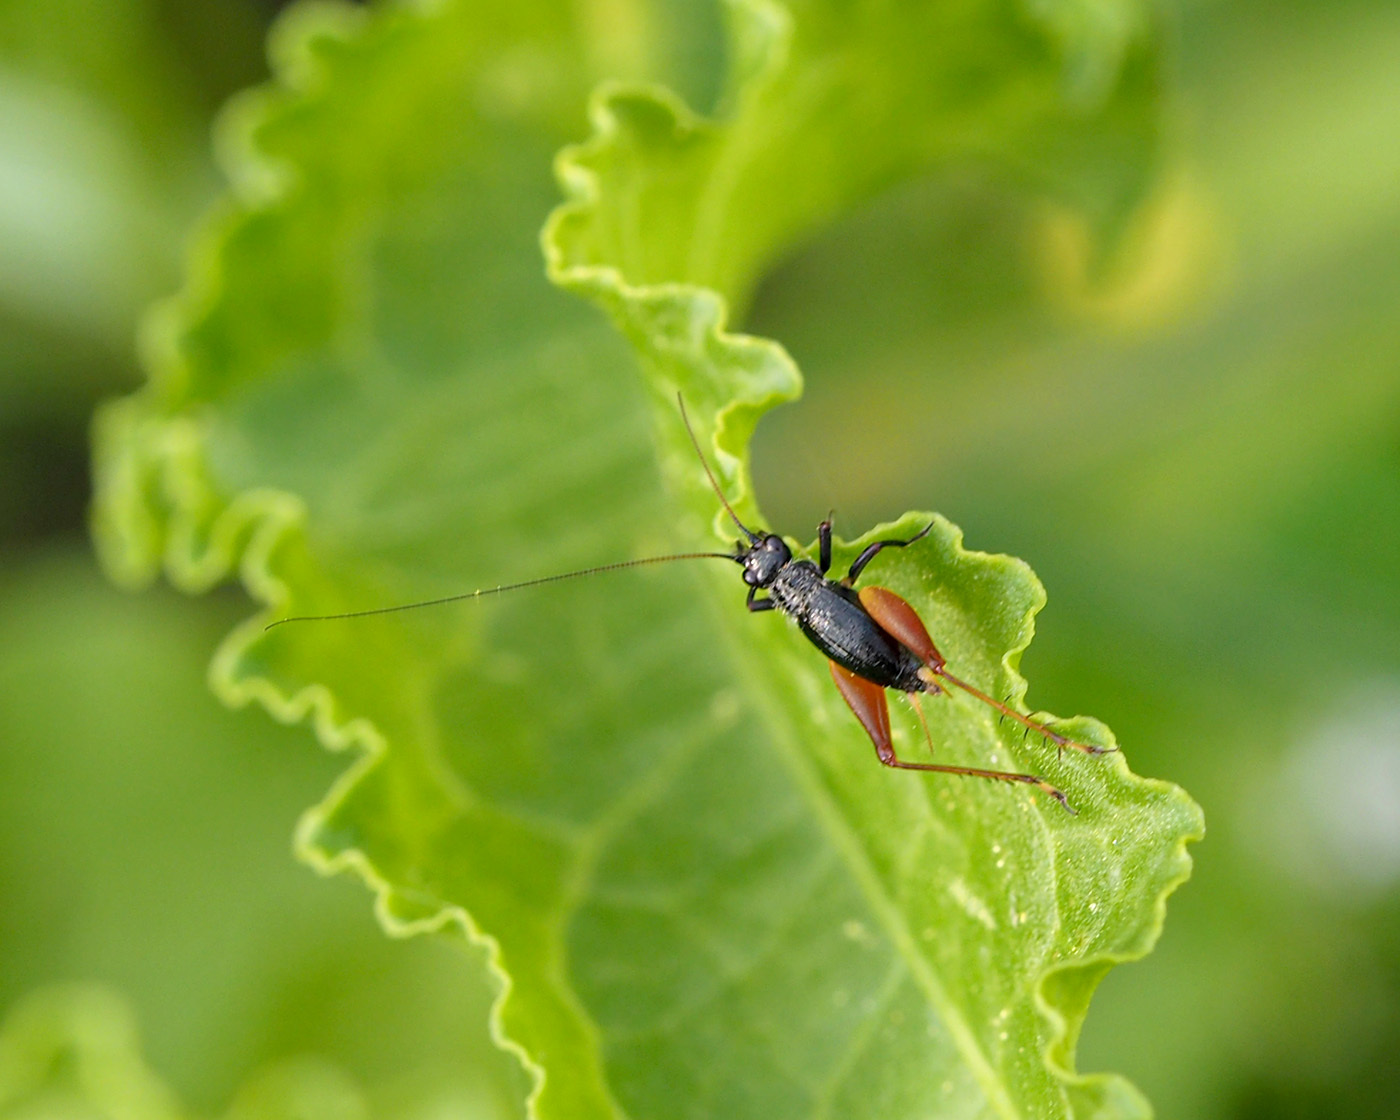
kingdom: Animalia
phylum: Arthropoda
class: Insecta
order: Orthoptera
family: Trigonidiidae
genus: Trigonidium
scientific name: Trigonidium cicindeloides
